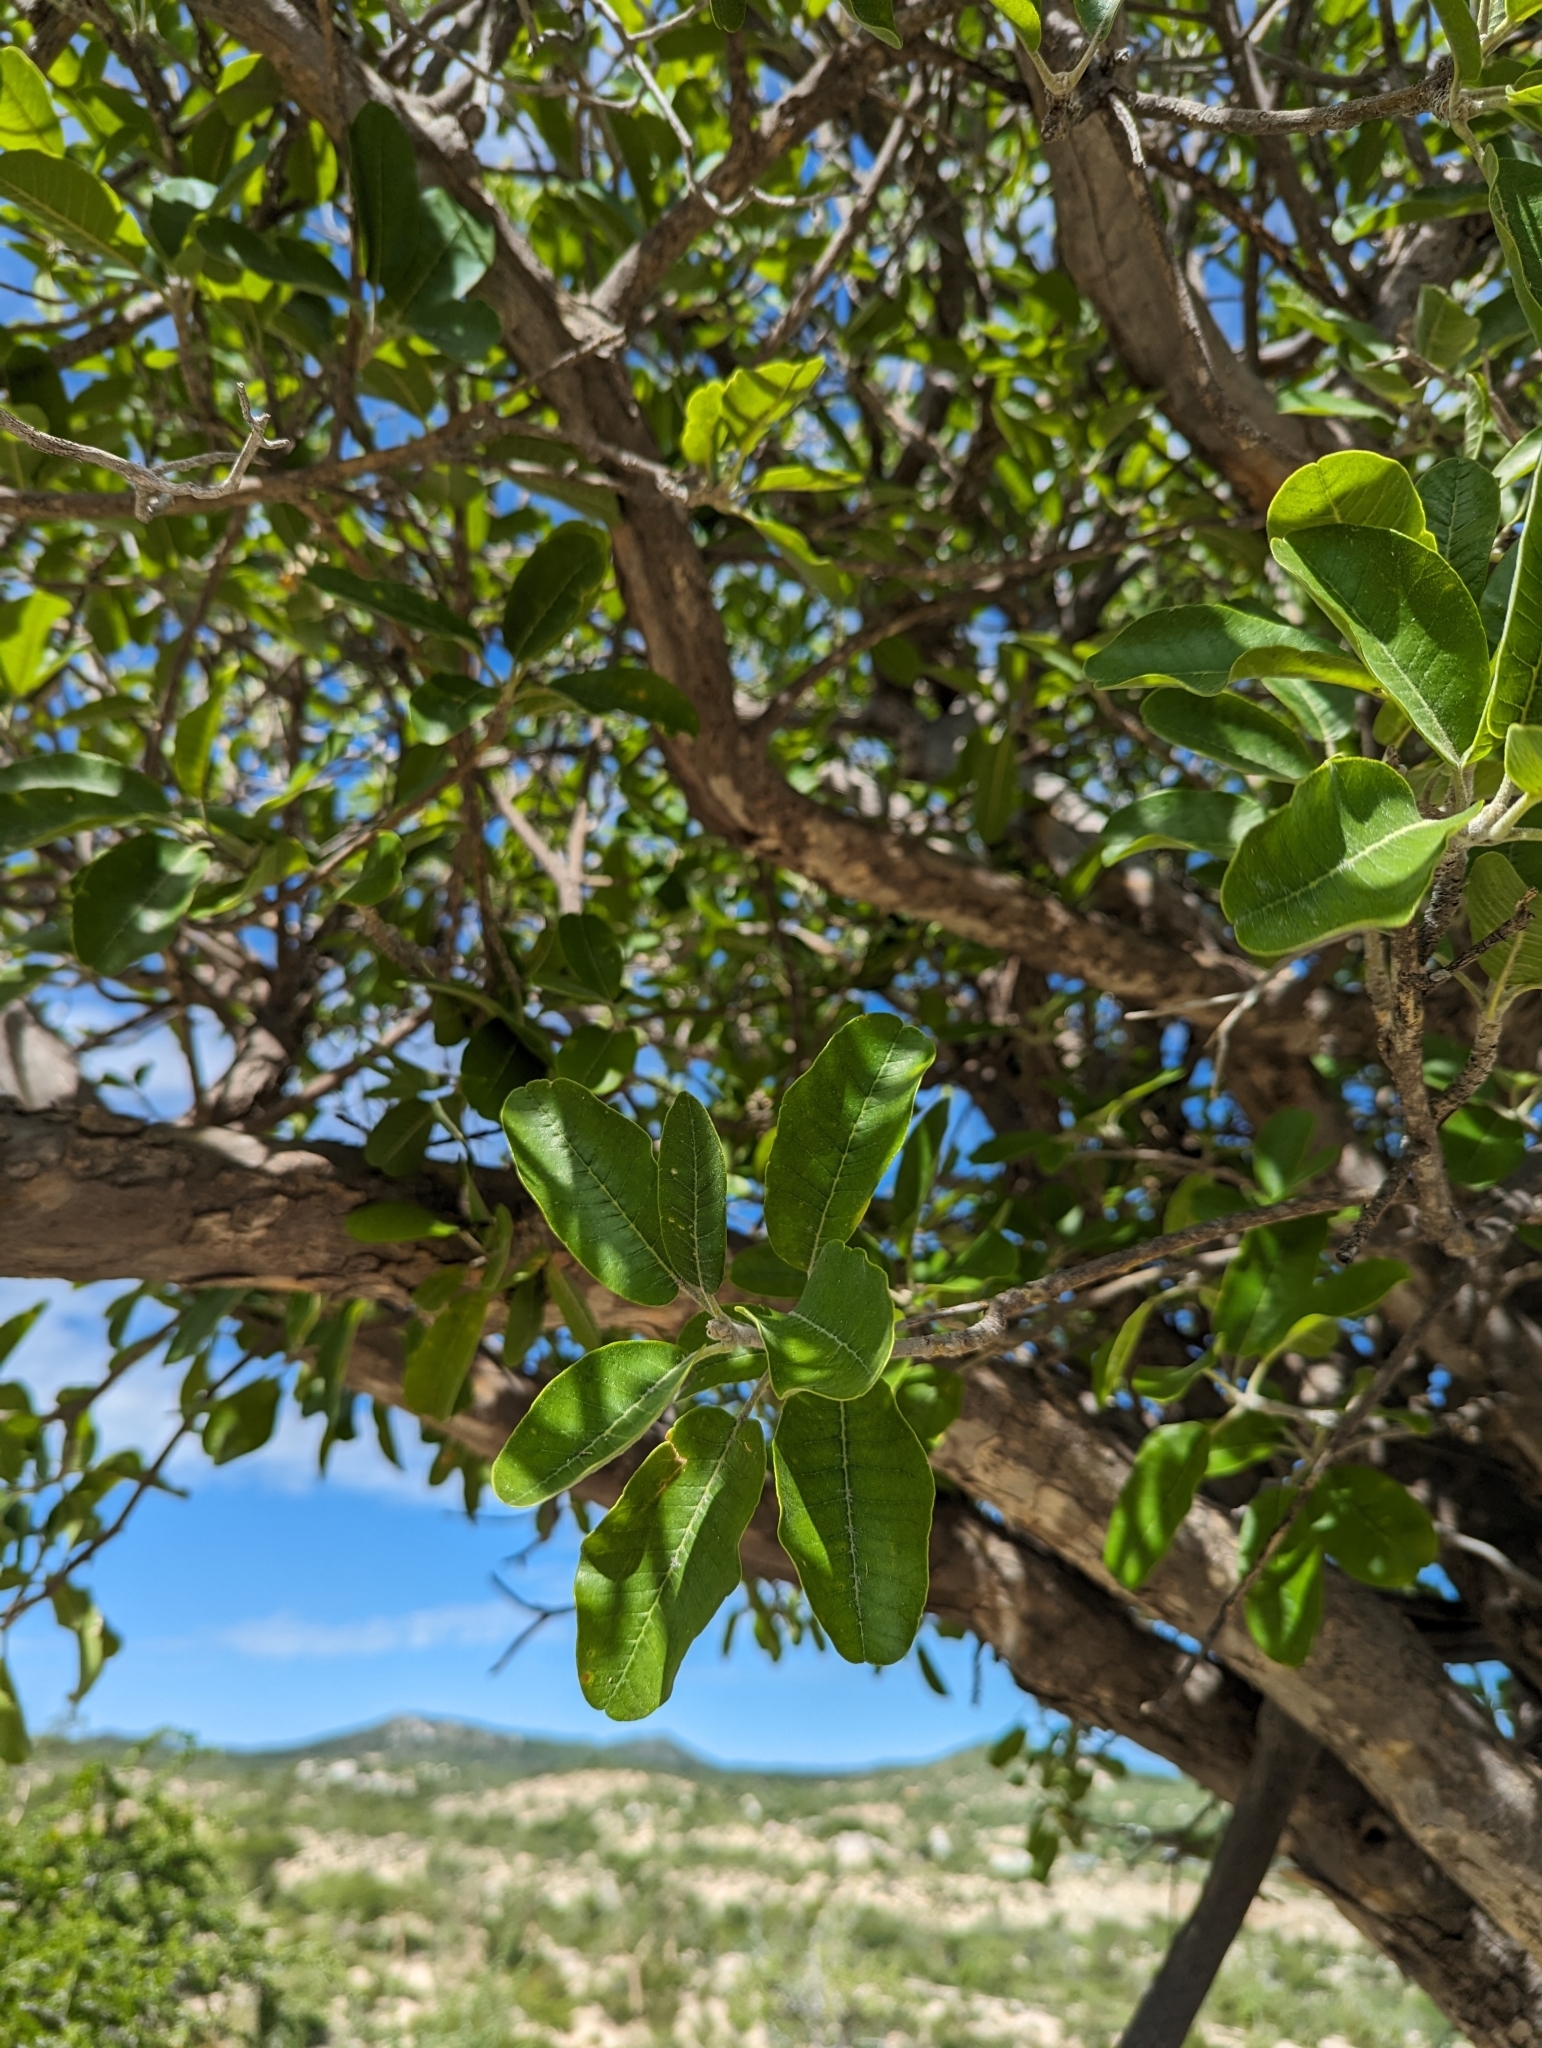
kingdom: Plantae
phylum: Tracheophyta
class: Magnoliopsida
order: Sapindales
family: Rutaceae
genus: Esenbeckia
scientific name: Esenbeckia flava
